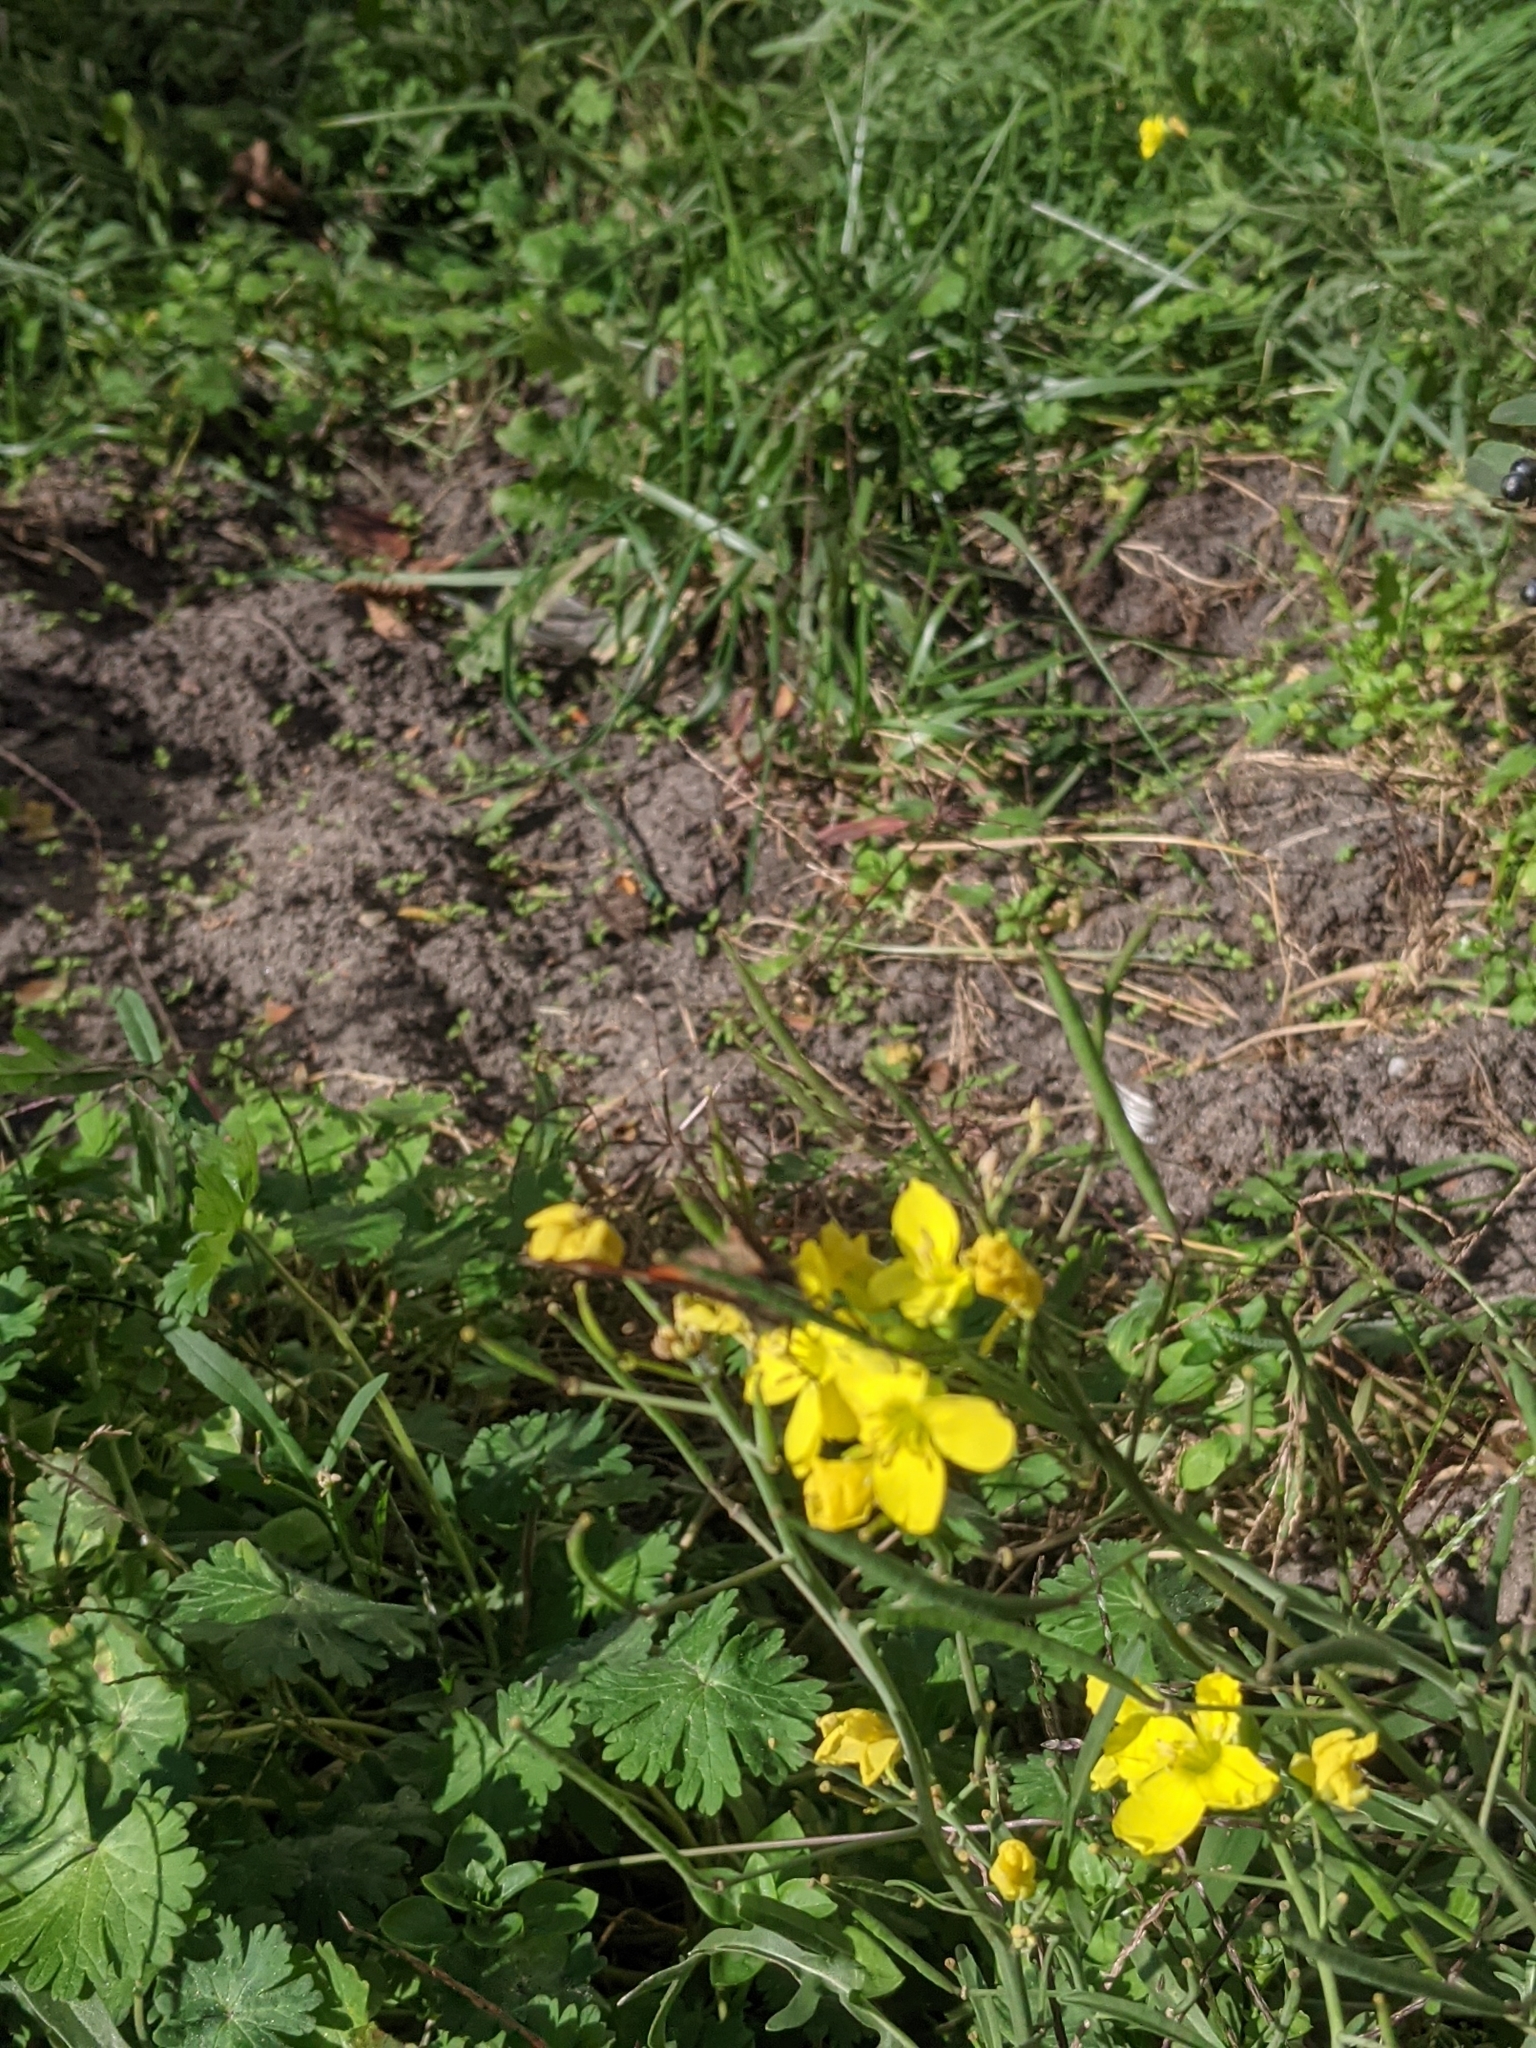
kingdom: Animalia
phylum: Arthropoda
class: Insecta
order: Lepidoptera
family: Nymphalidae
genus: Aglais
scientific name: Aglais urticae
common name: Small tortoiseshell
